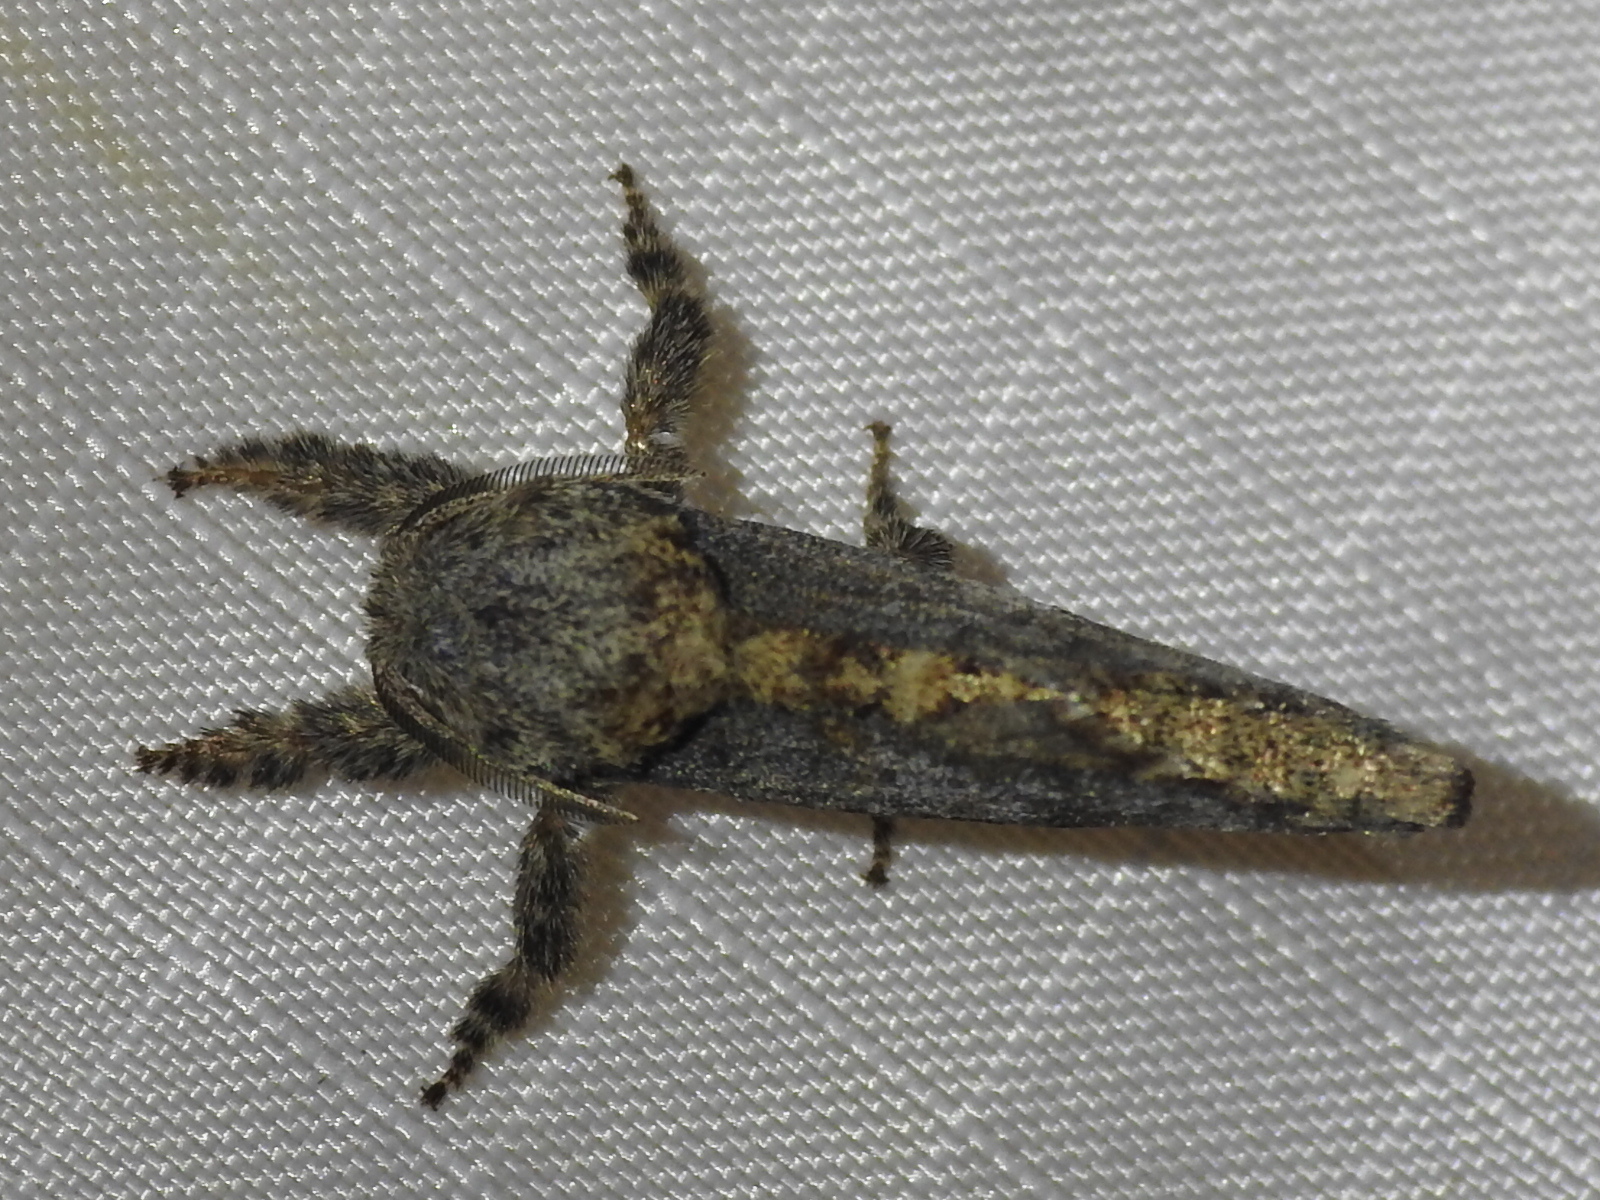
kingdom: Animalia
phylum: Arthropoda
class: Insecta
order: Lepidoptera
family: Cossidae
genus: Givira
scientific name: Givira arbeloides
